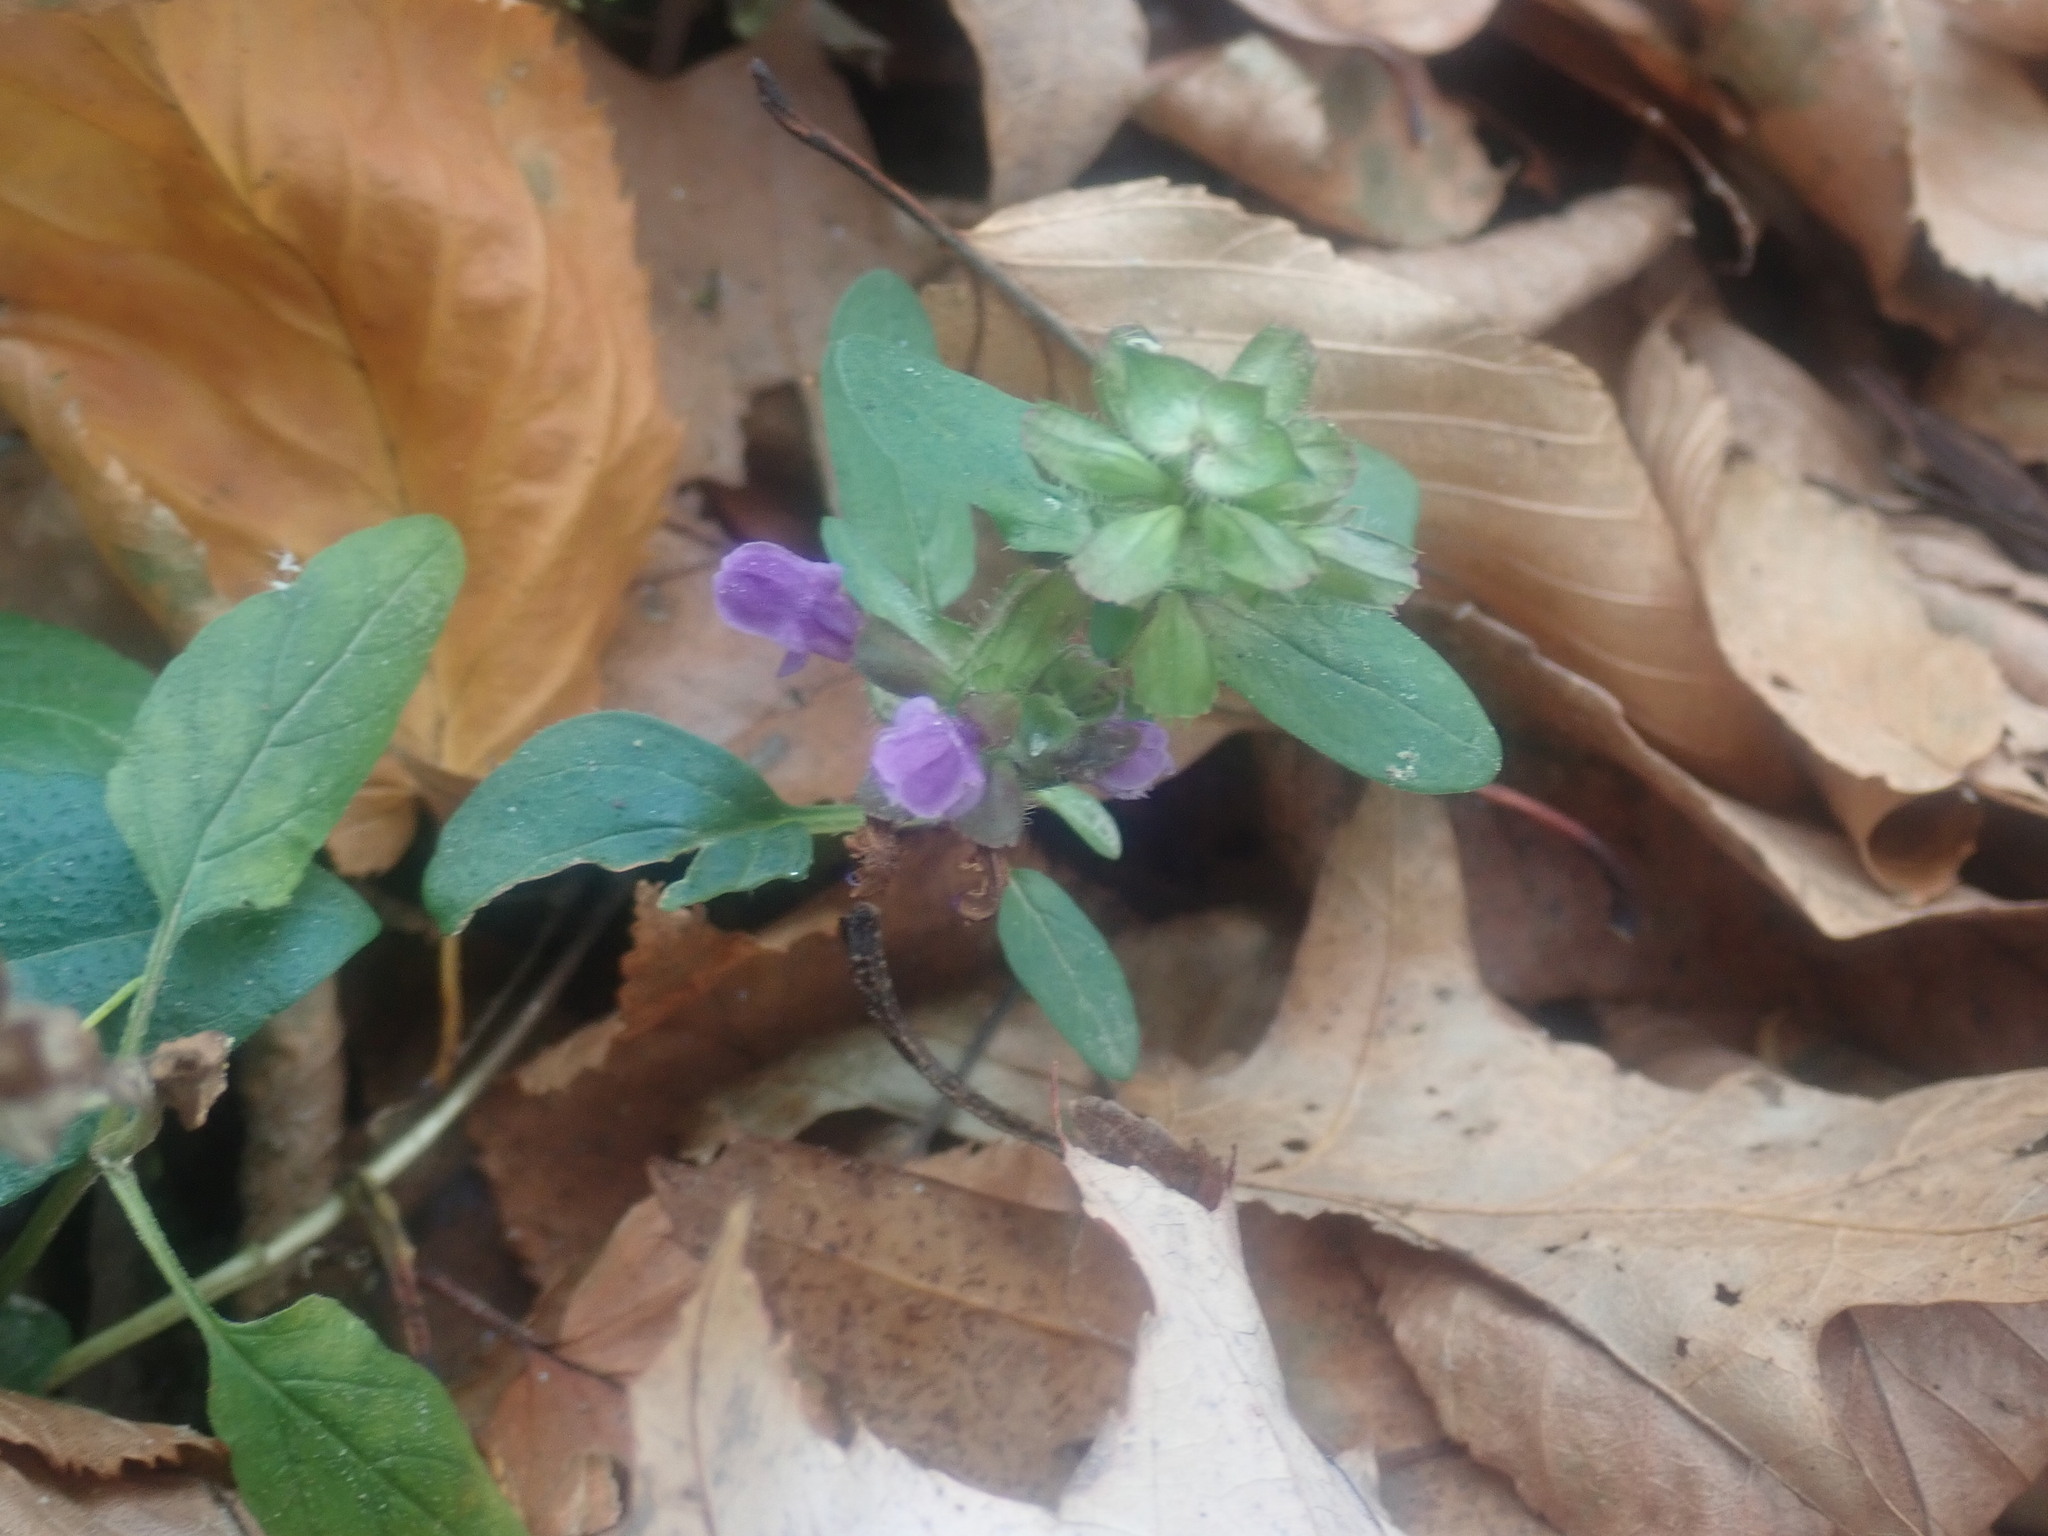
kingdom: Plantae
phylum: Tracheophyta
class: Magnoliopsida
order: Lamiales
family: Lamiaceae
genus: Prunella
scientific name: Prunella vulgaris
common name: Heal-all
